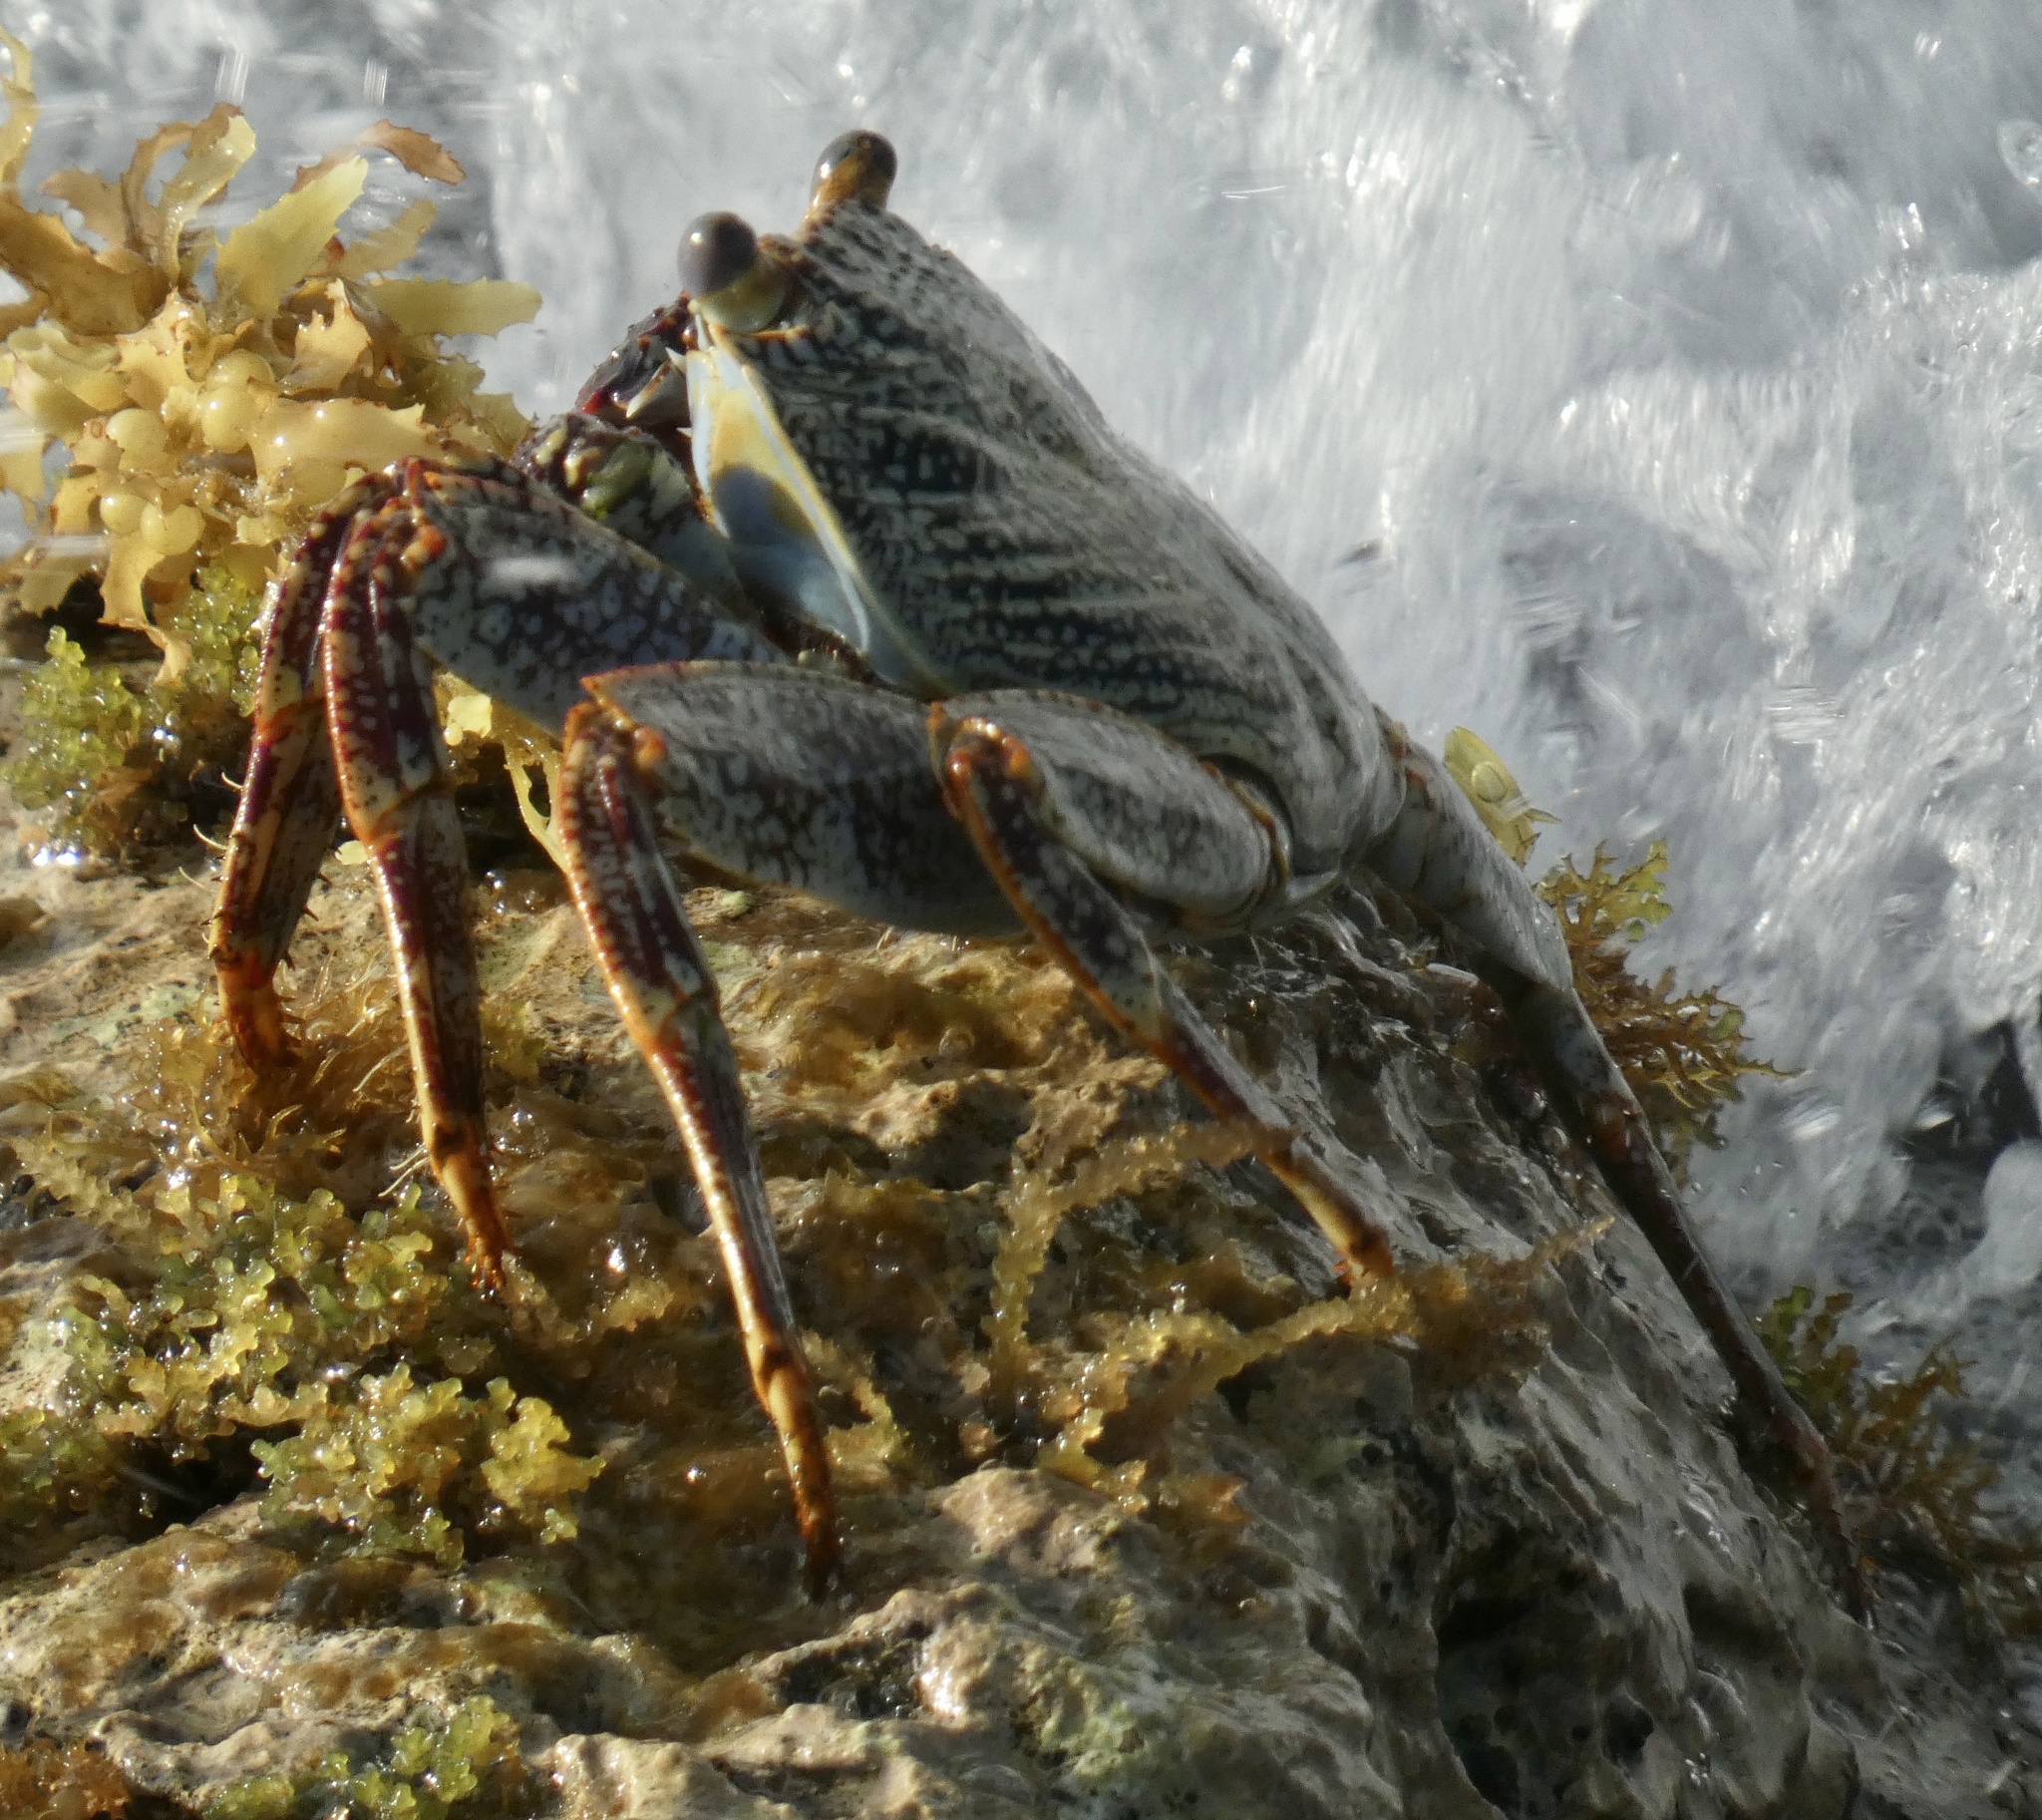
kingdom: Animalia
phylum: Arthropoda
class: Malacostraca
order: Decapoda
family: Grapsidae
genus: Grapsus
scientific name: Grapsus grapsus
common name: Sally lightfoot
